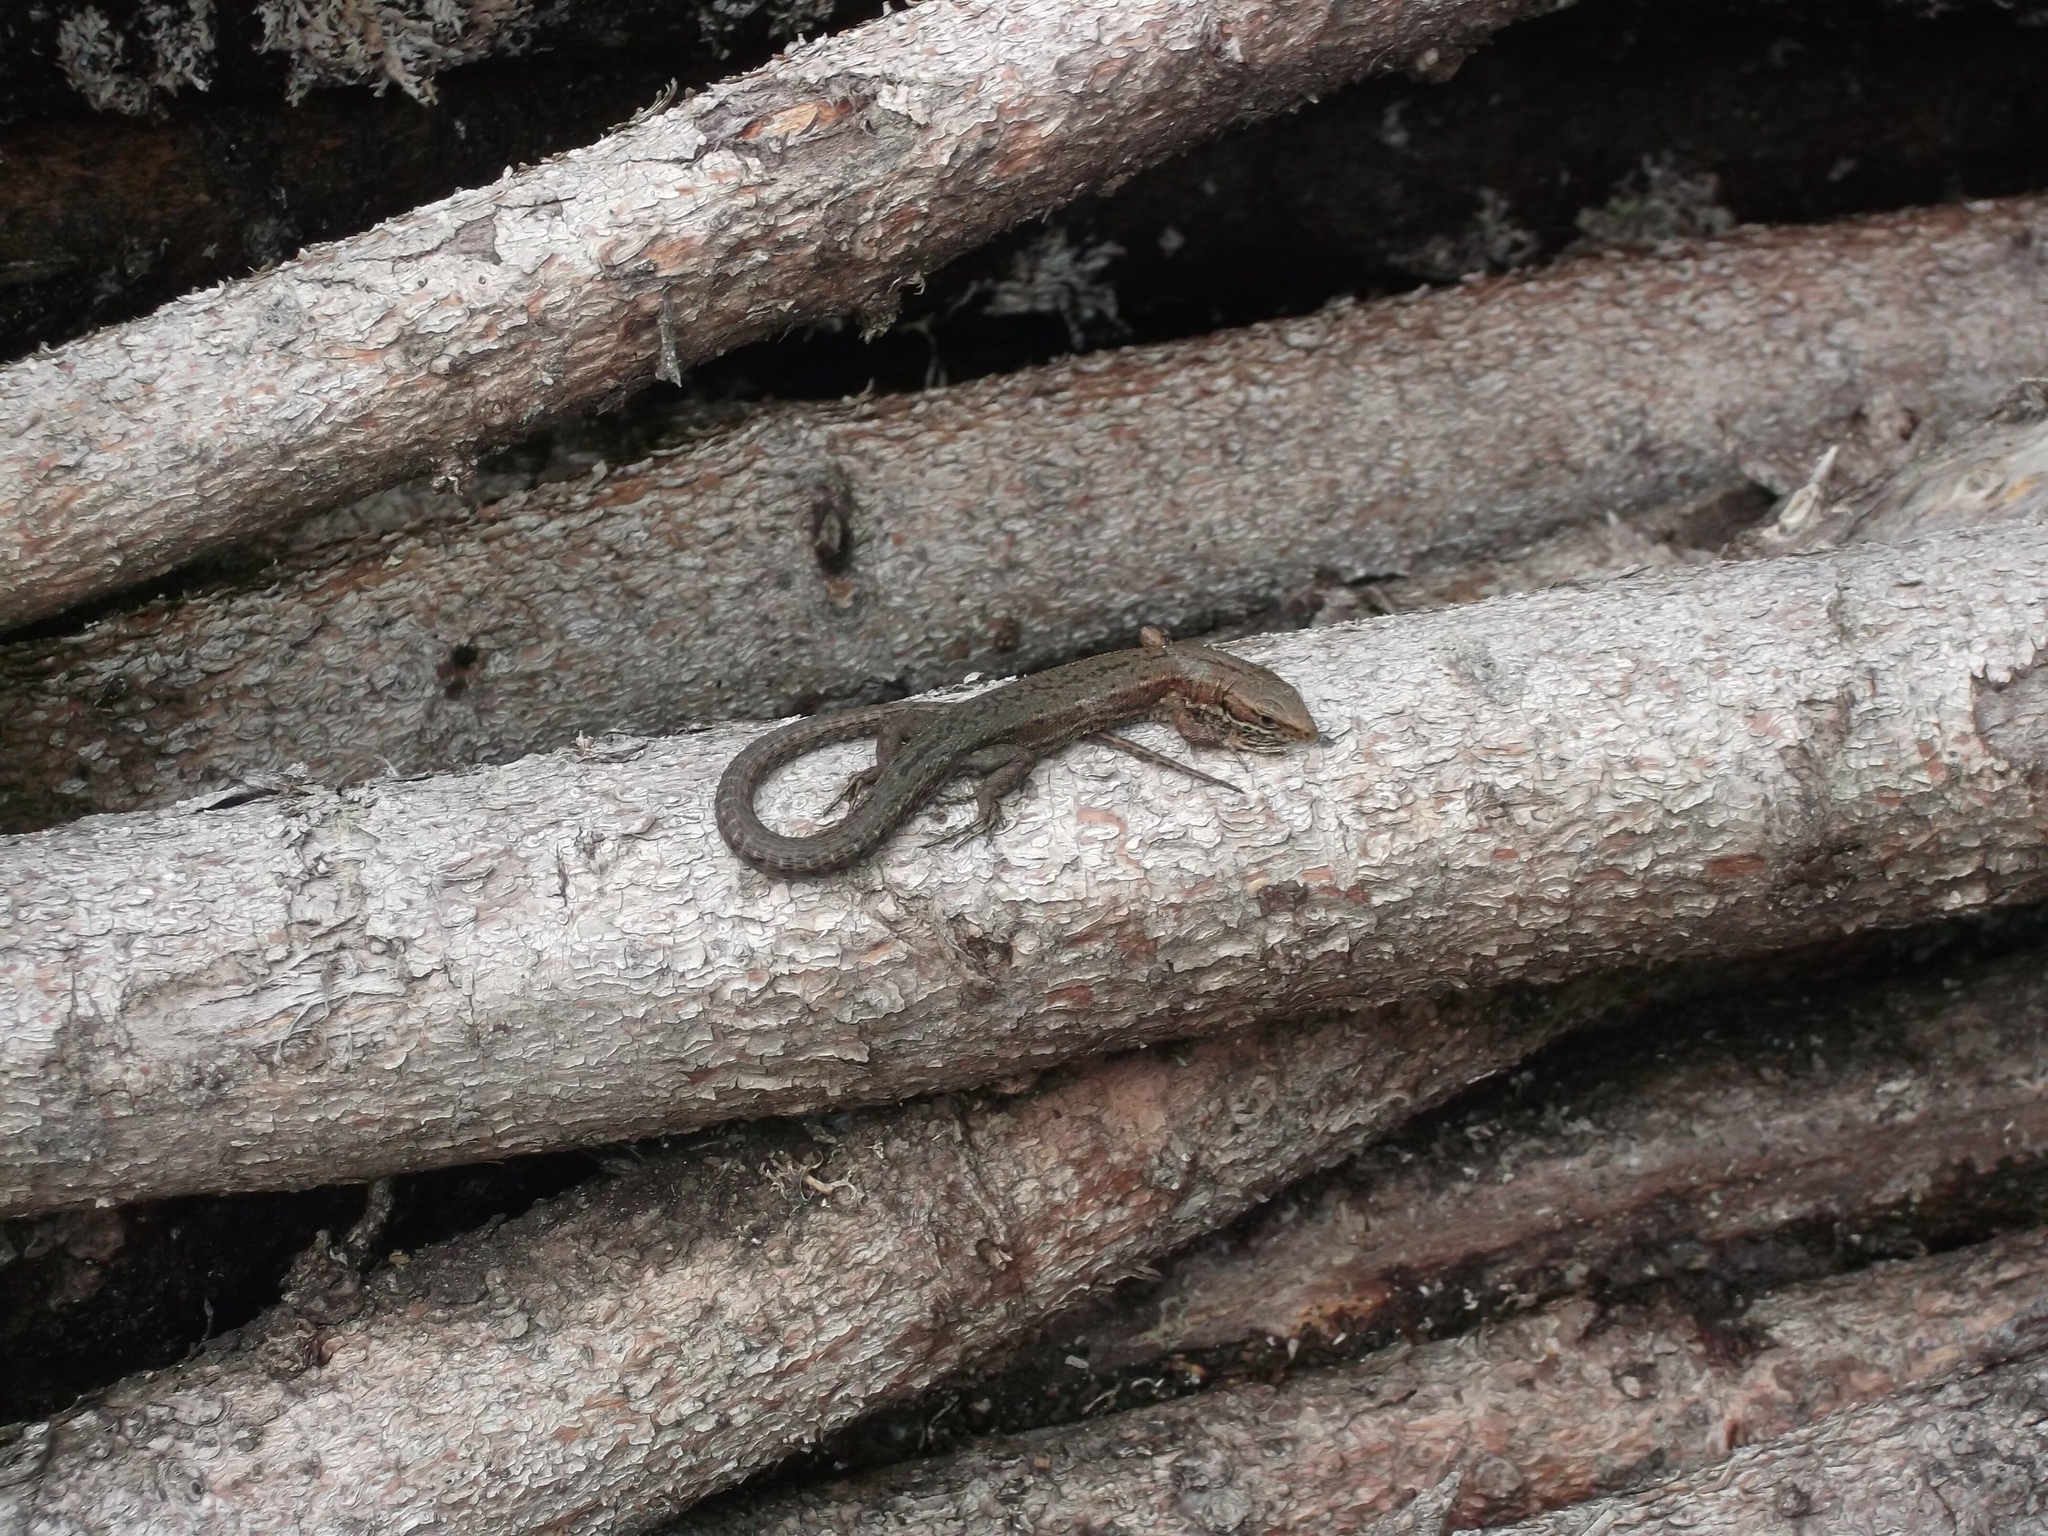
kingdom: Animalia
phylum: Chordata
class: Squamata
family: Lacertidae
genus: Zootoca
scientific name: Zootoca
